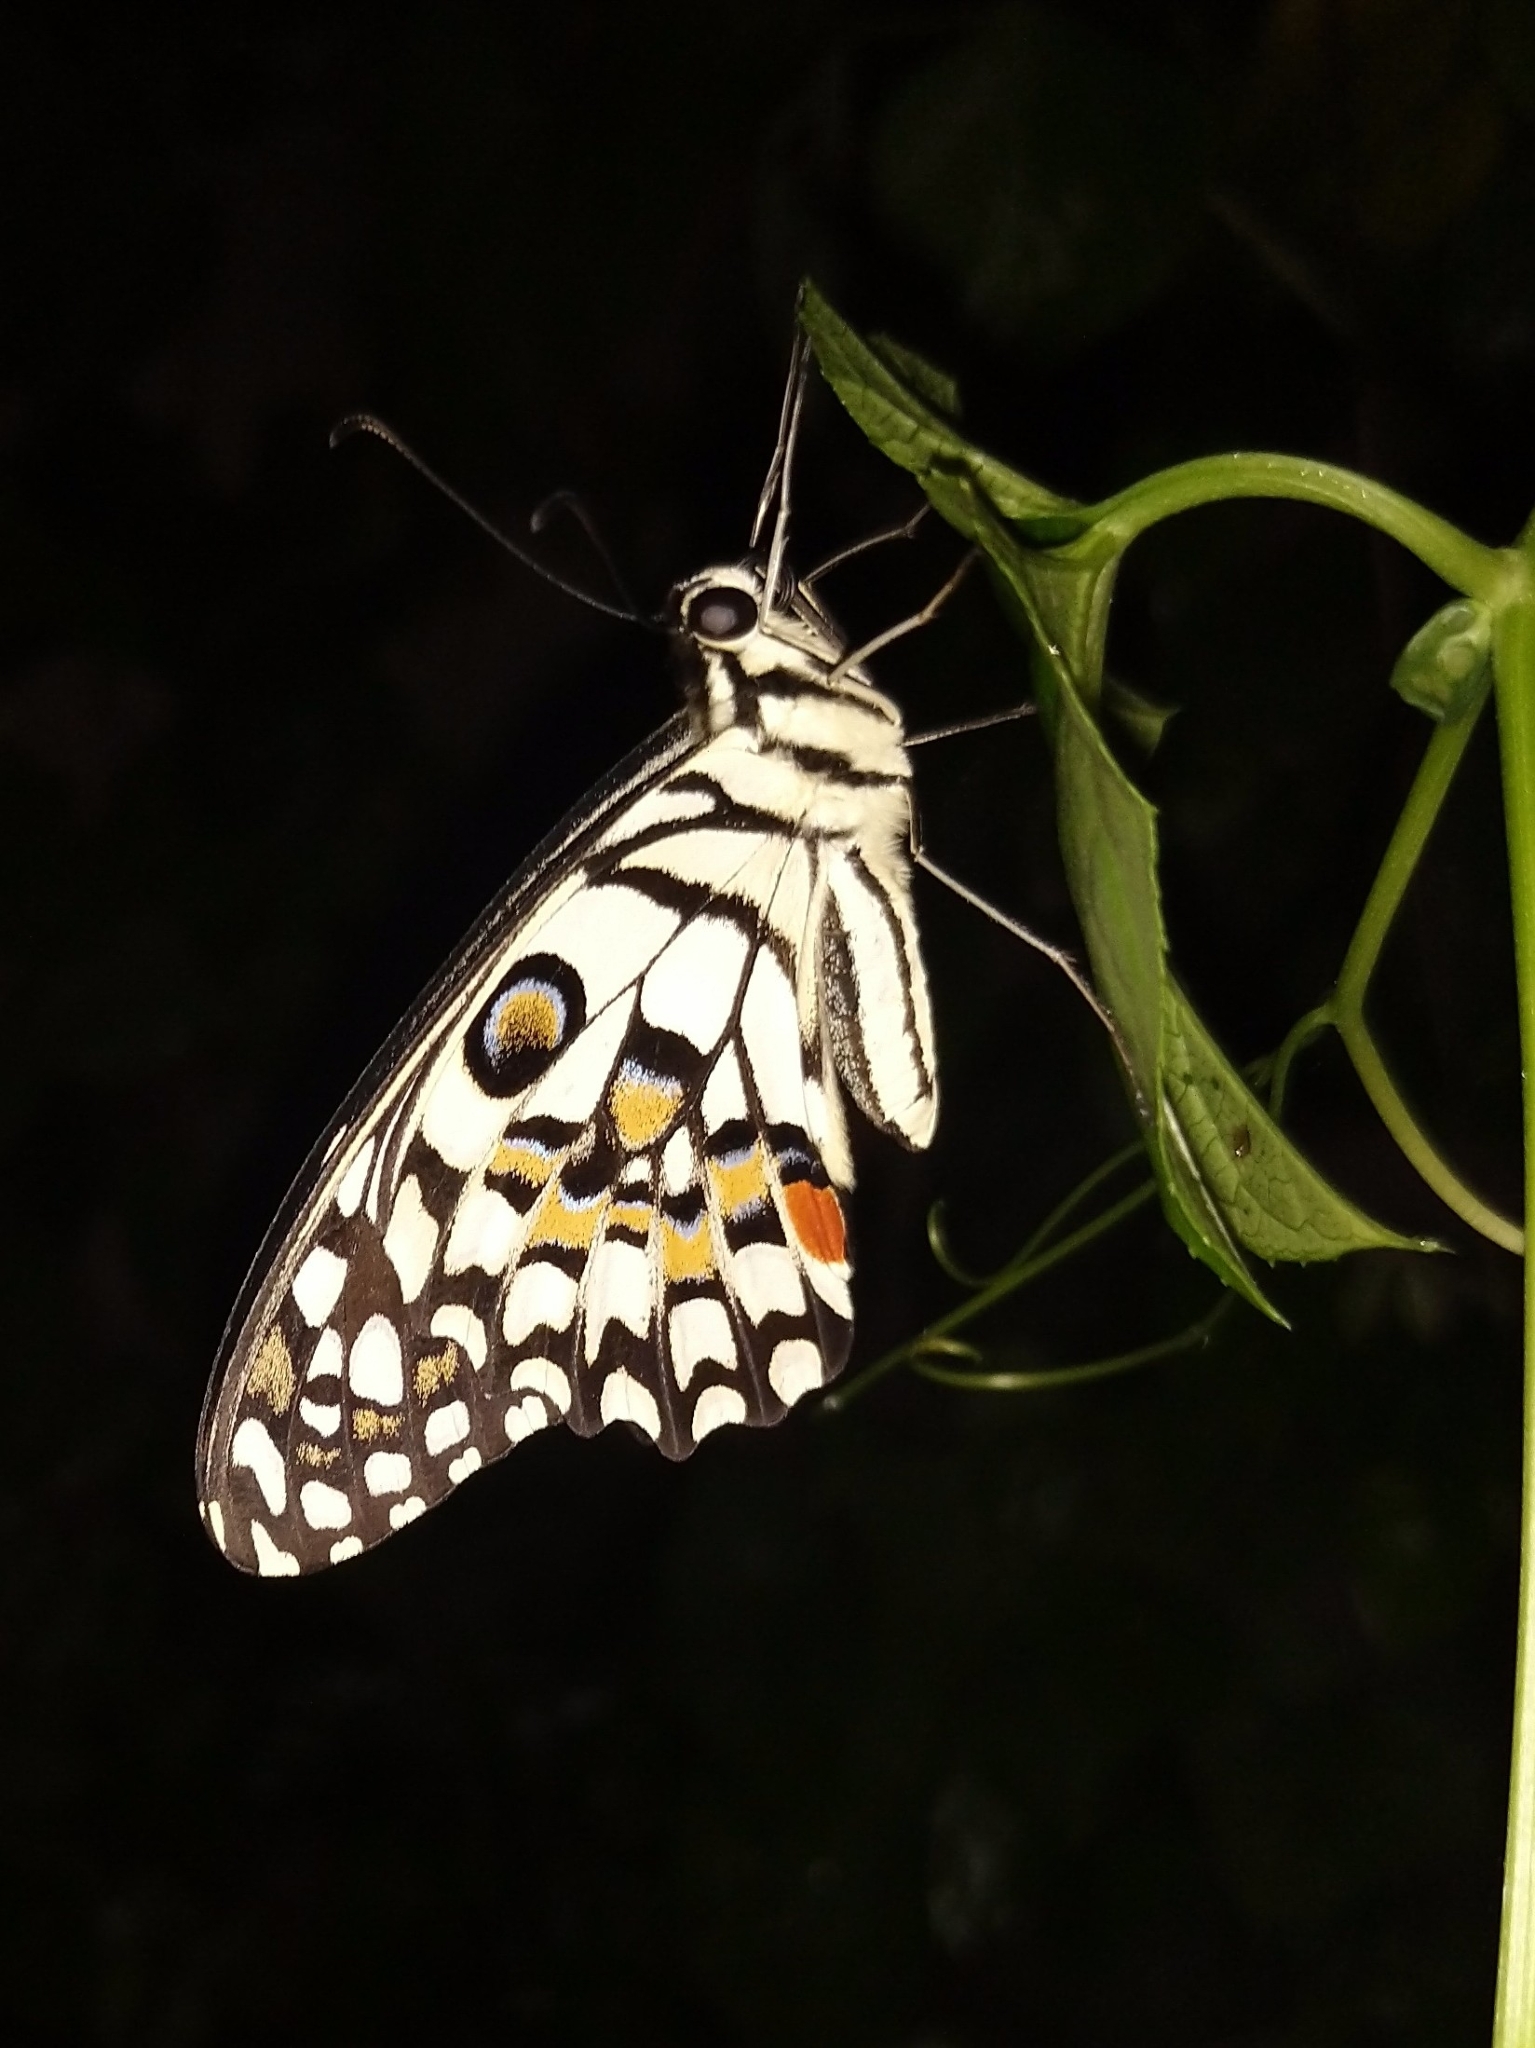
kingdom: Animalia
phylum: Arthropoda
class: Insecta
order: Lepidoptera
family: Papilionidae
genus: Papilio
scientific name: Papilio demoleus
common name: Lime butterfly
